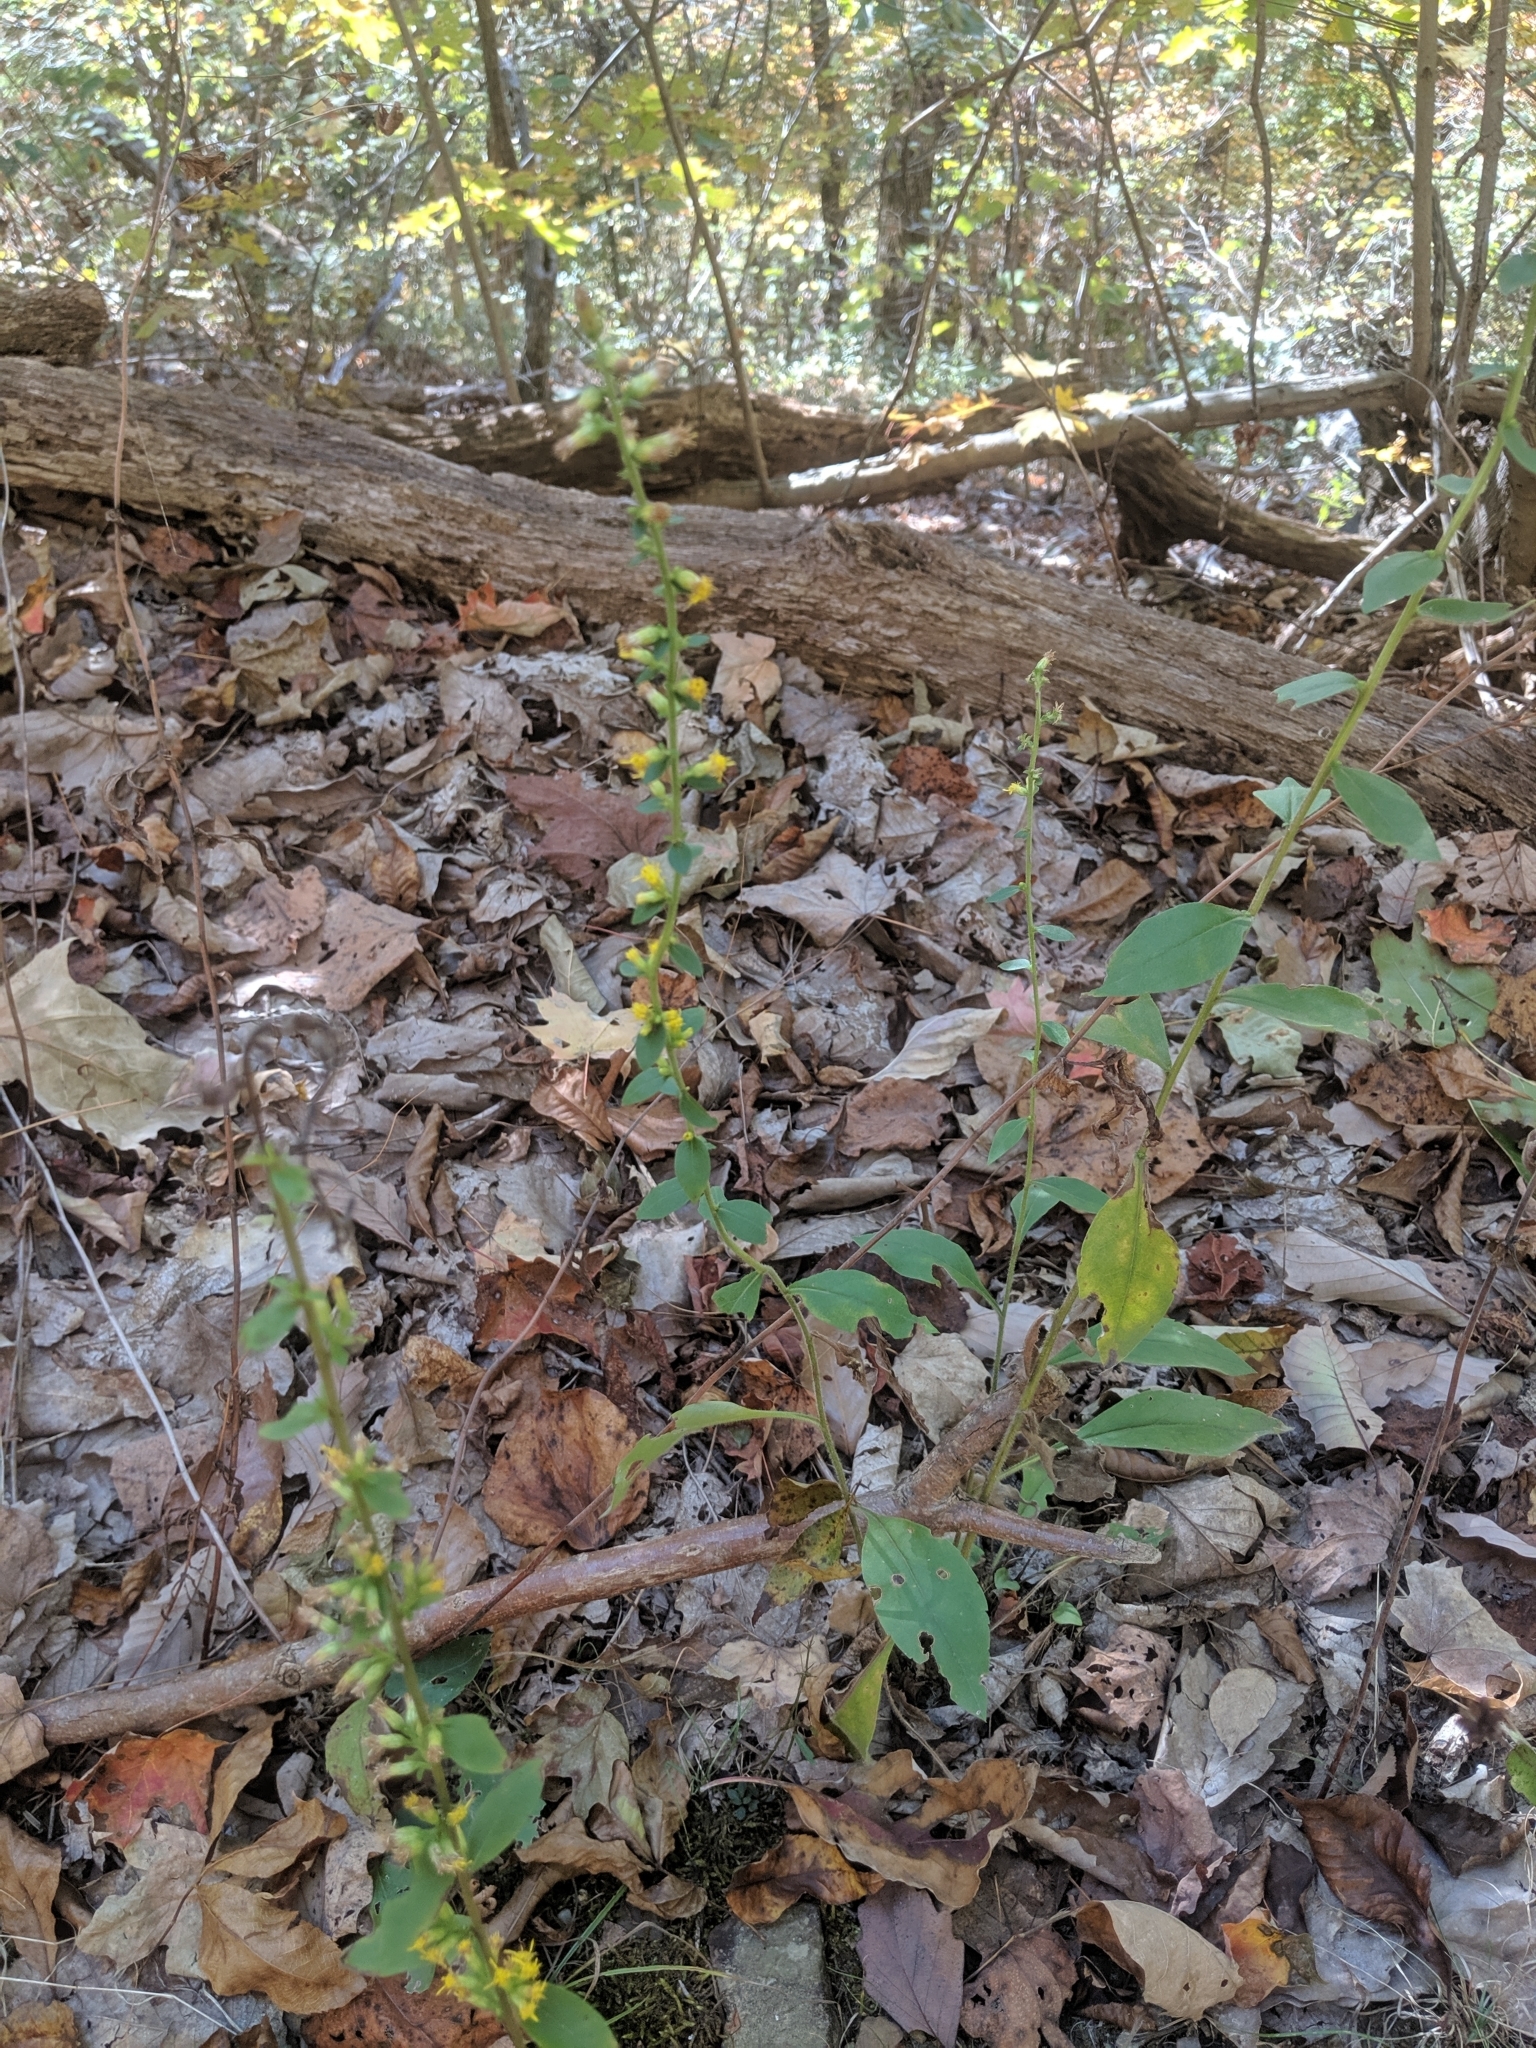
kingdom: Plantae
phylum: Tracheophyta
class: Magnoliopsida
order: Asterales
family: Asteraceae
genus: Solidago
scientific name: Solidago hispida
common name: Hairy goldenrod
